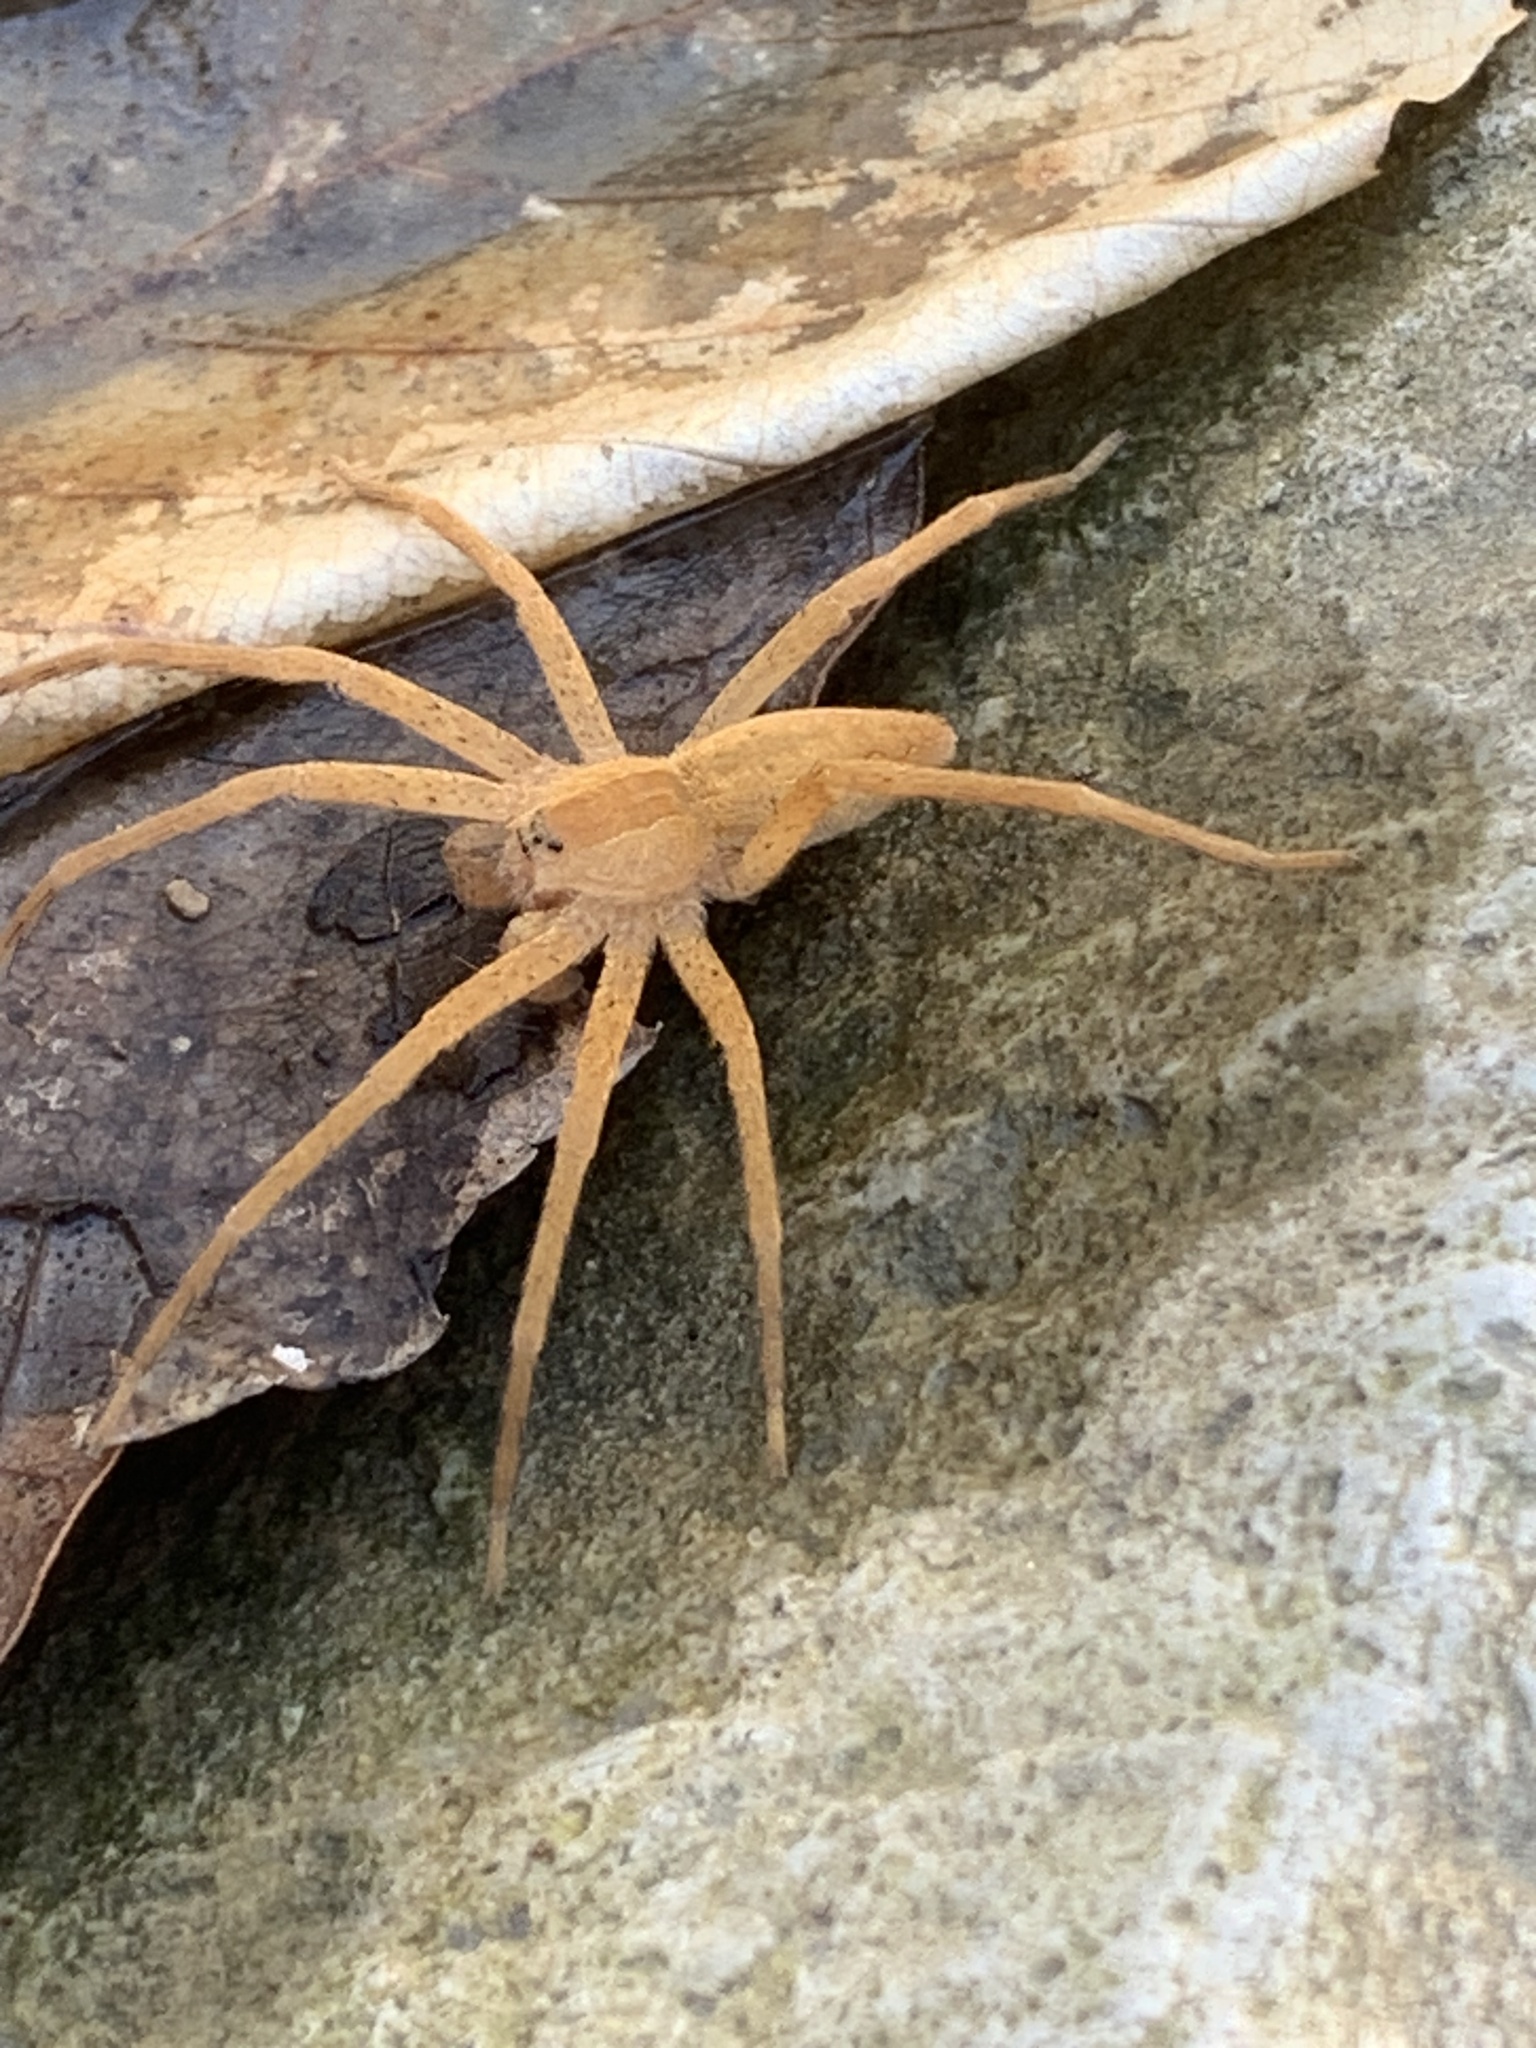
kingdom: Animalia
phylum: Arthropoda
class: Arachnida
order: Araneae
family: Pisauridae
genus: Pisaurina
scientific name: Pisaurina mira
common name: American nursery web spider
